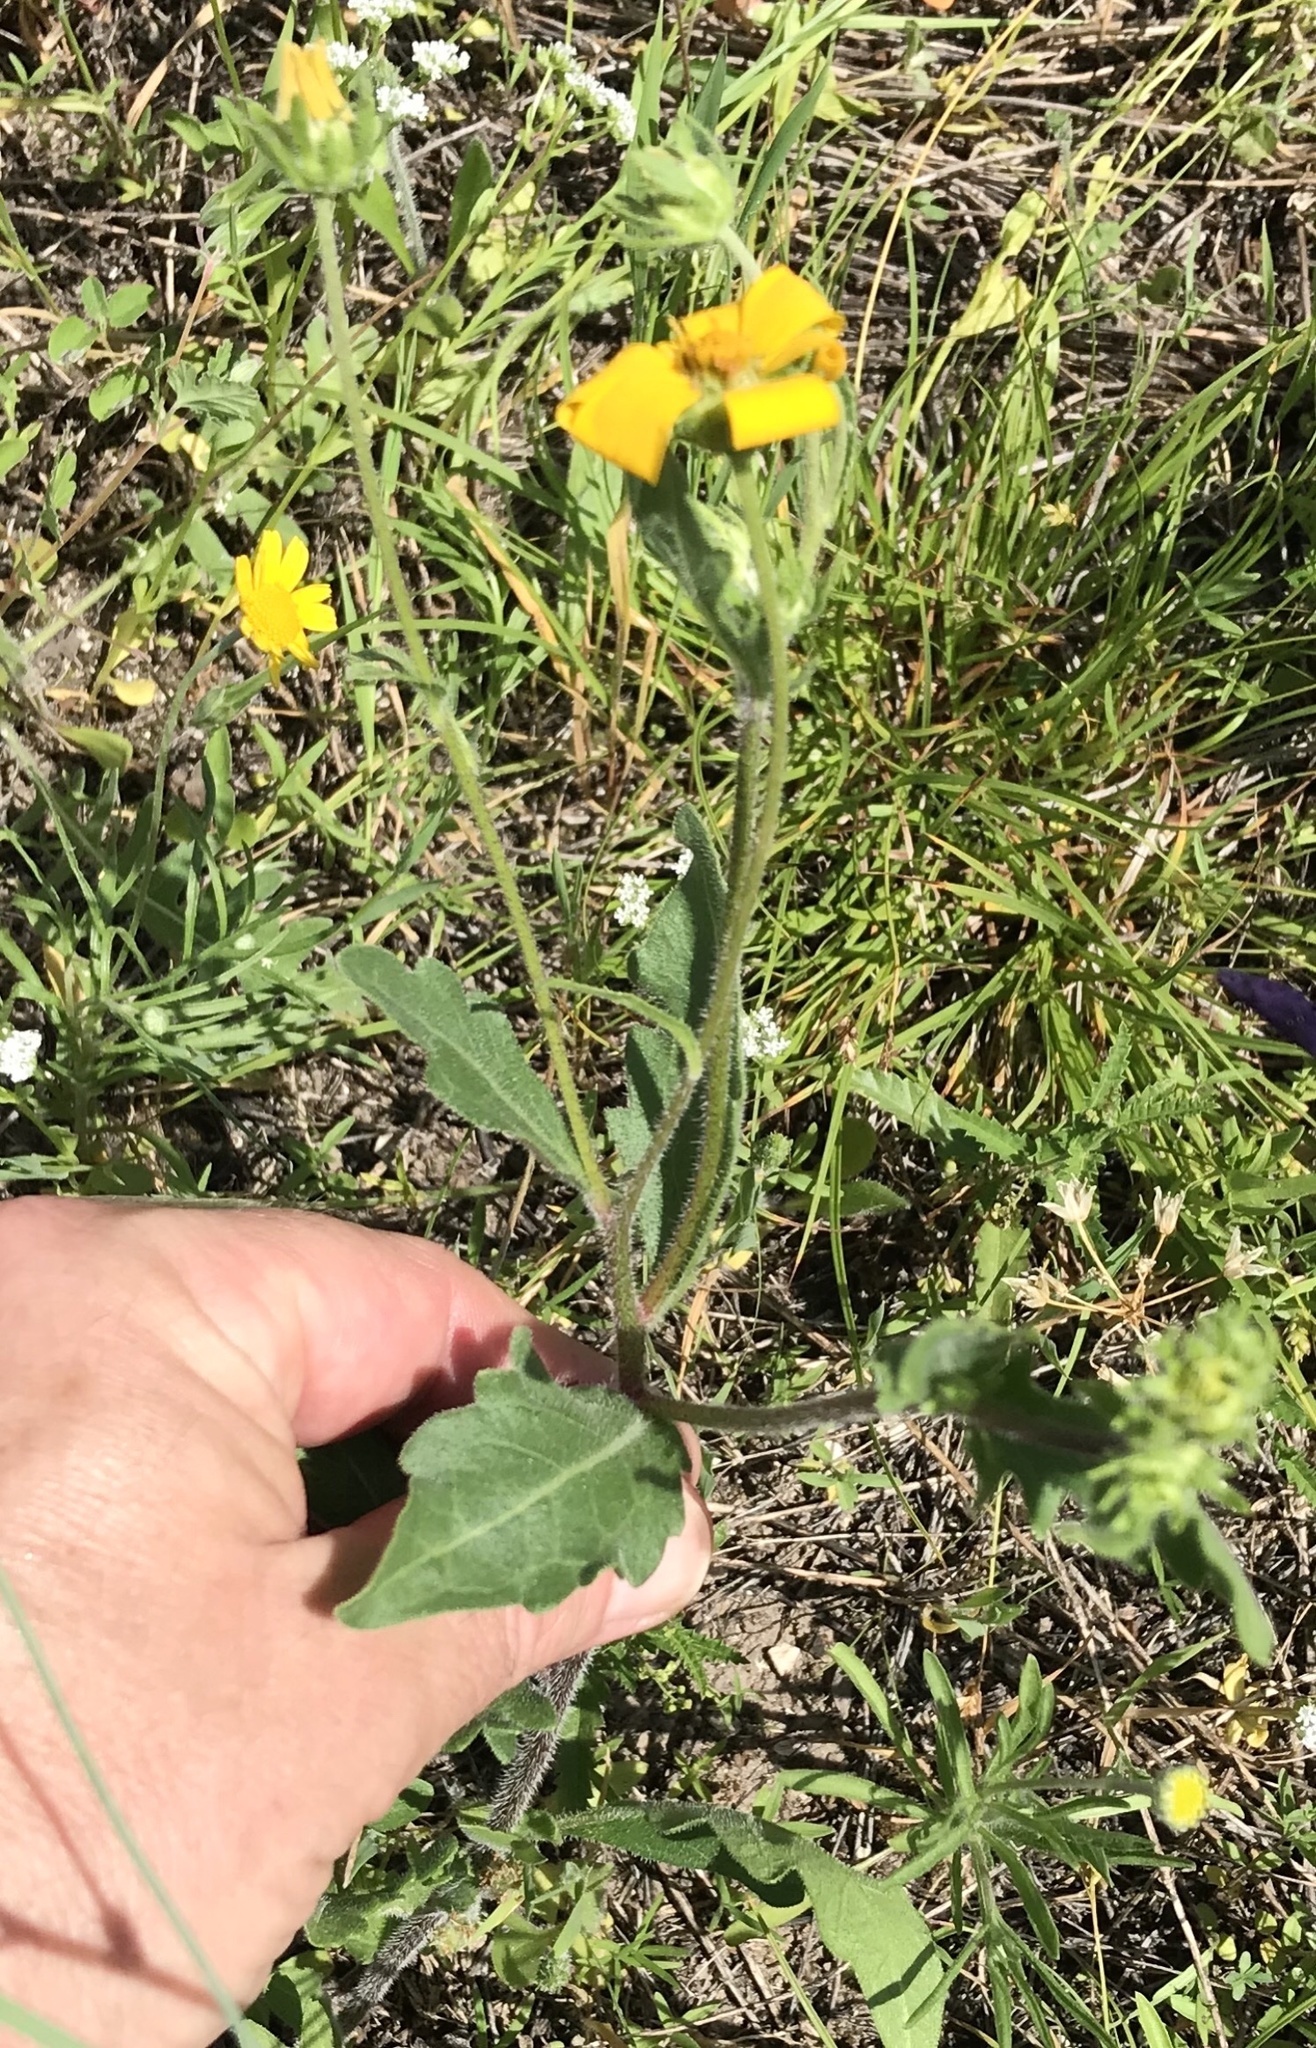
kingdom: Plantae
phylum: Tracheophyta
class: Magnoliopsida
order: Asterales
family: Asteraceae
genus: Engelmannia
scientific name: Engelmannia peristenia
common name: Engelmann's daisy
